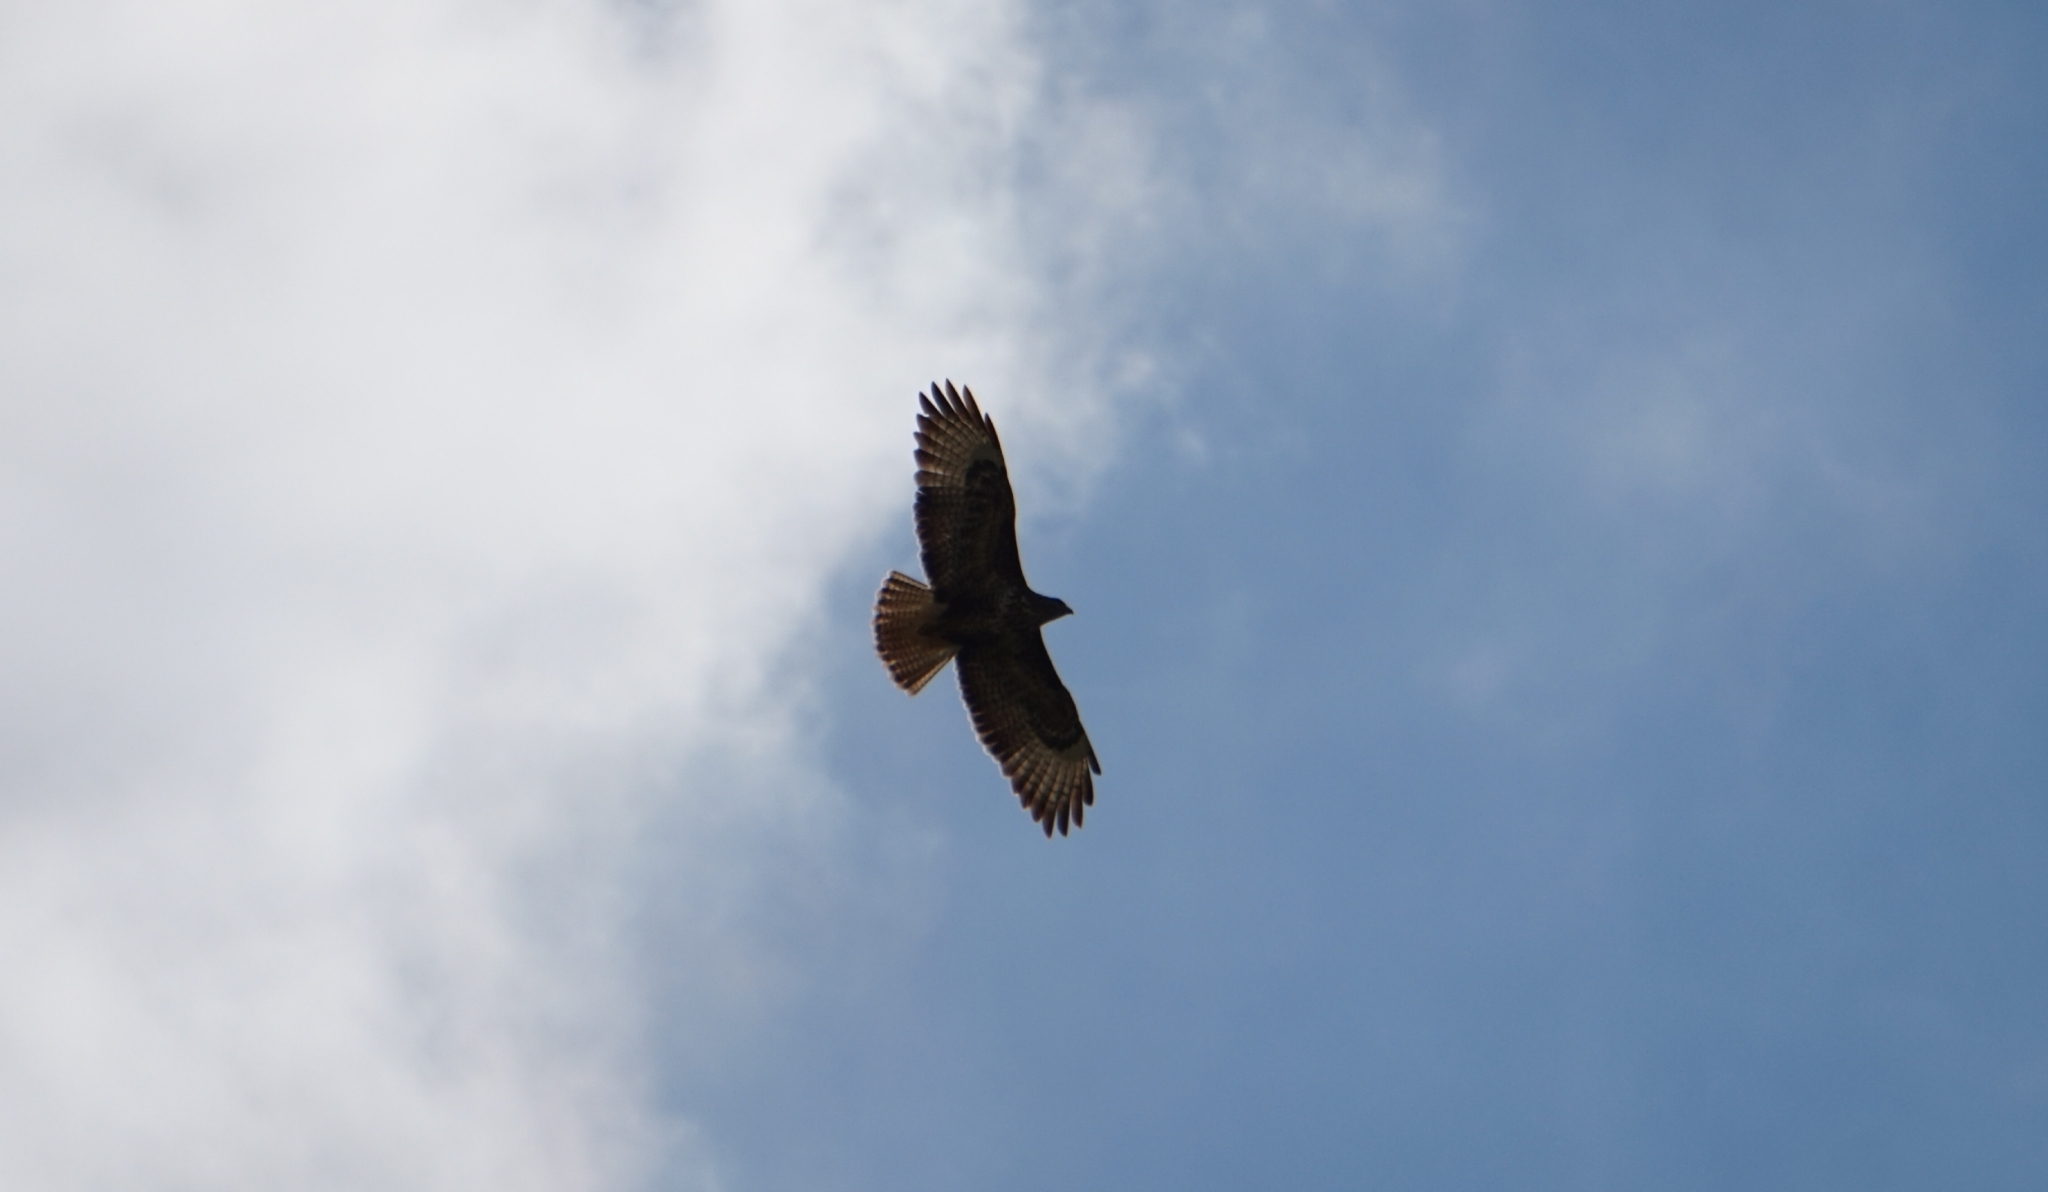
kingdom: Animalia
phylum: Chordata
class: Aves
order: Accipitriformes
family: Accipitridae
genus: Buteo
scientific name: Buteo buteo
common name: Common buzzard
